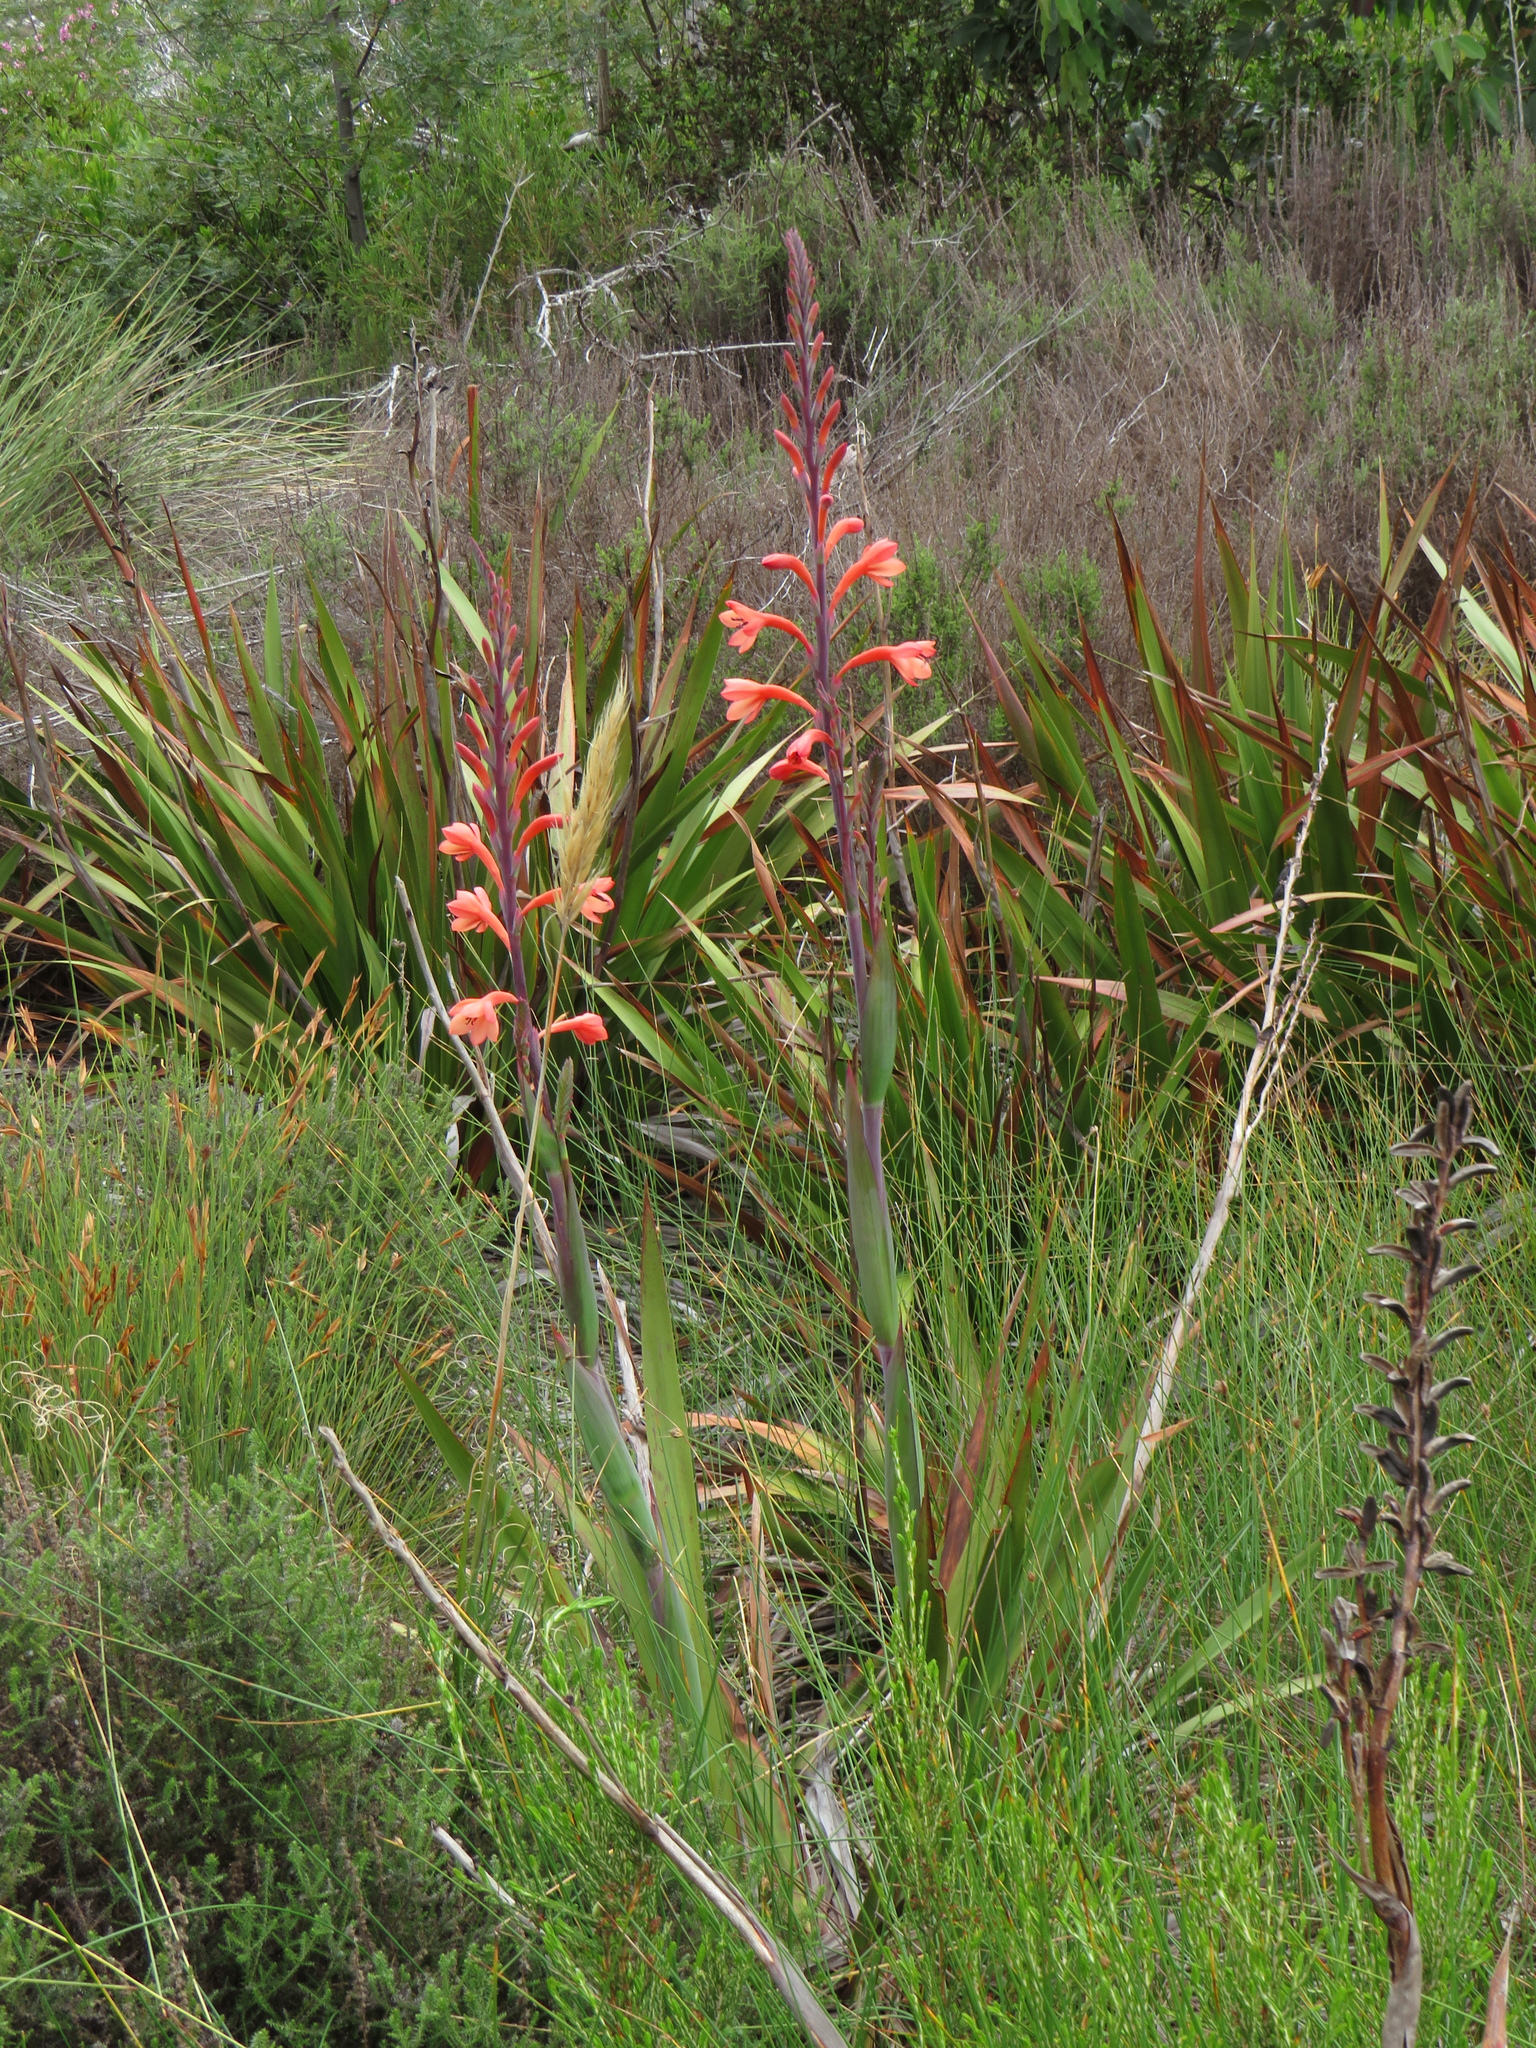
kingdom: Plantae
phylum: Tracheophyta
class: Liliopsida
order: Asparagales
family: Iridaceae
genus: Watsonia
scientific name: Watsonia tabularis
